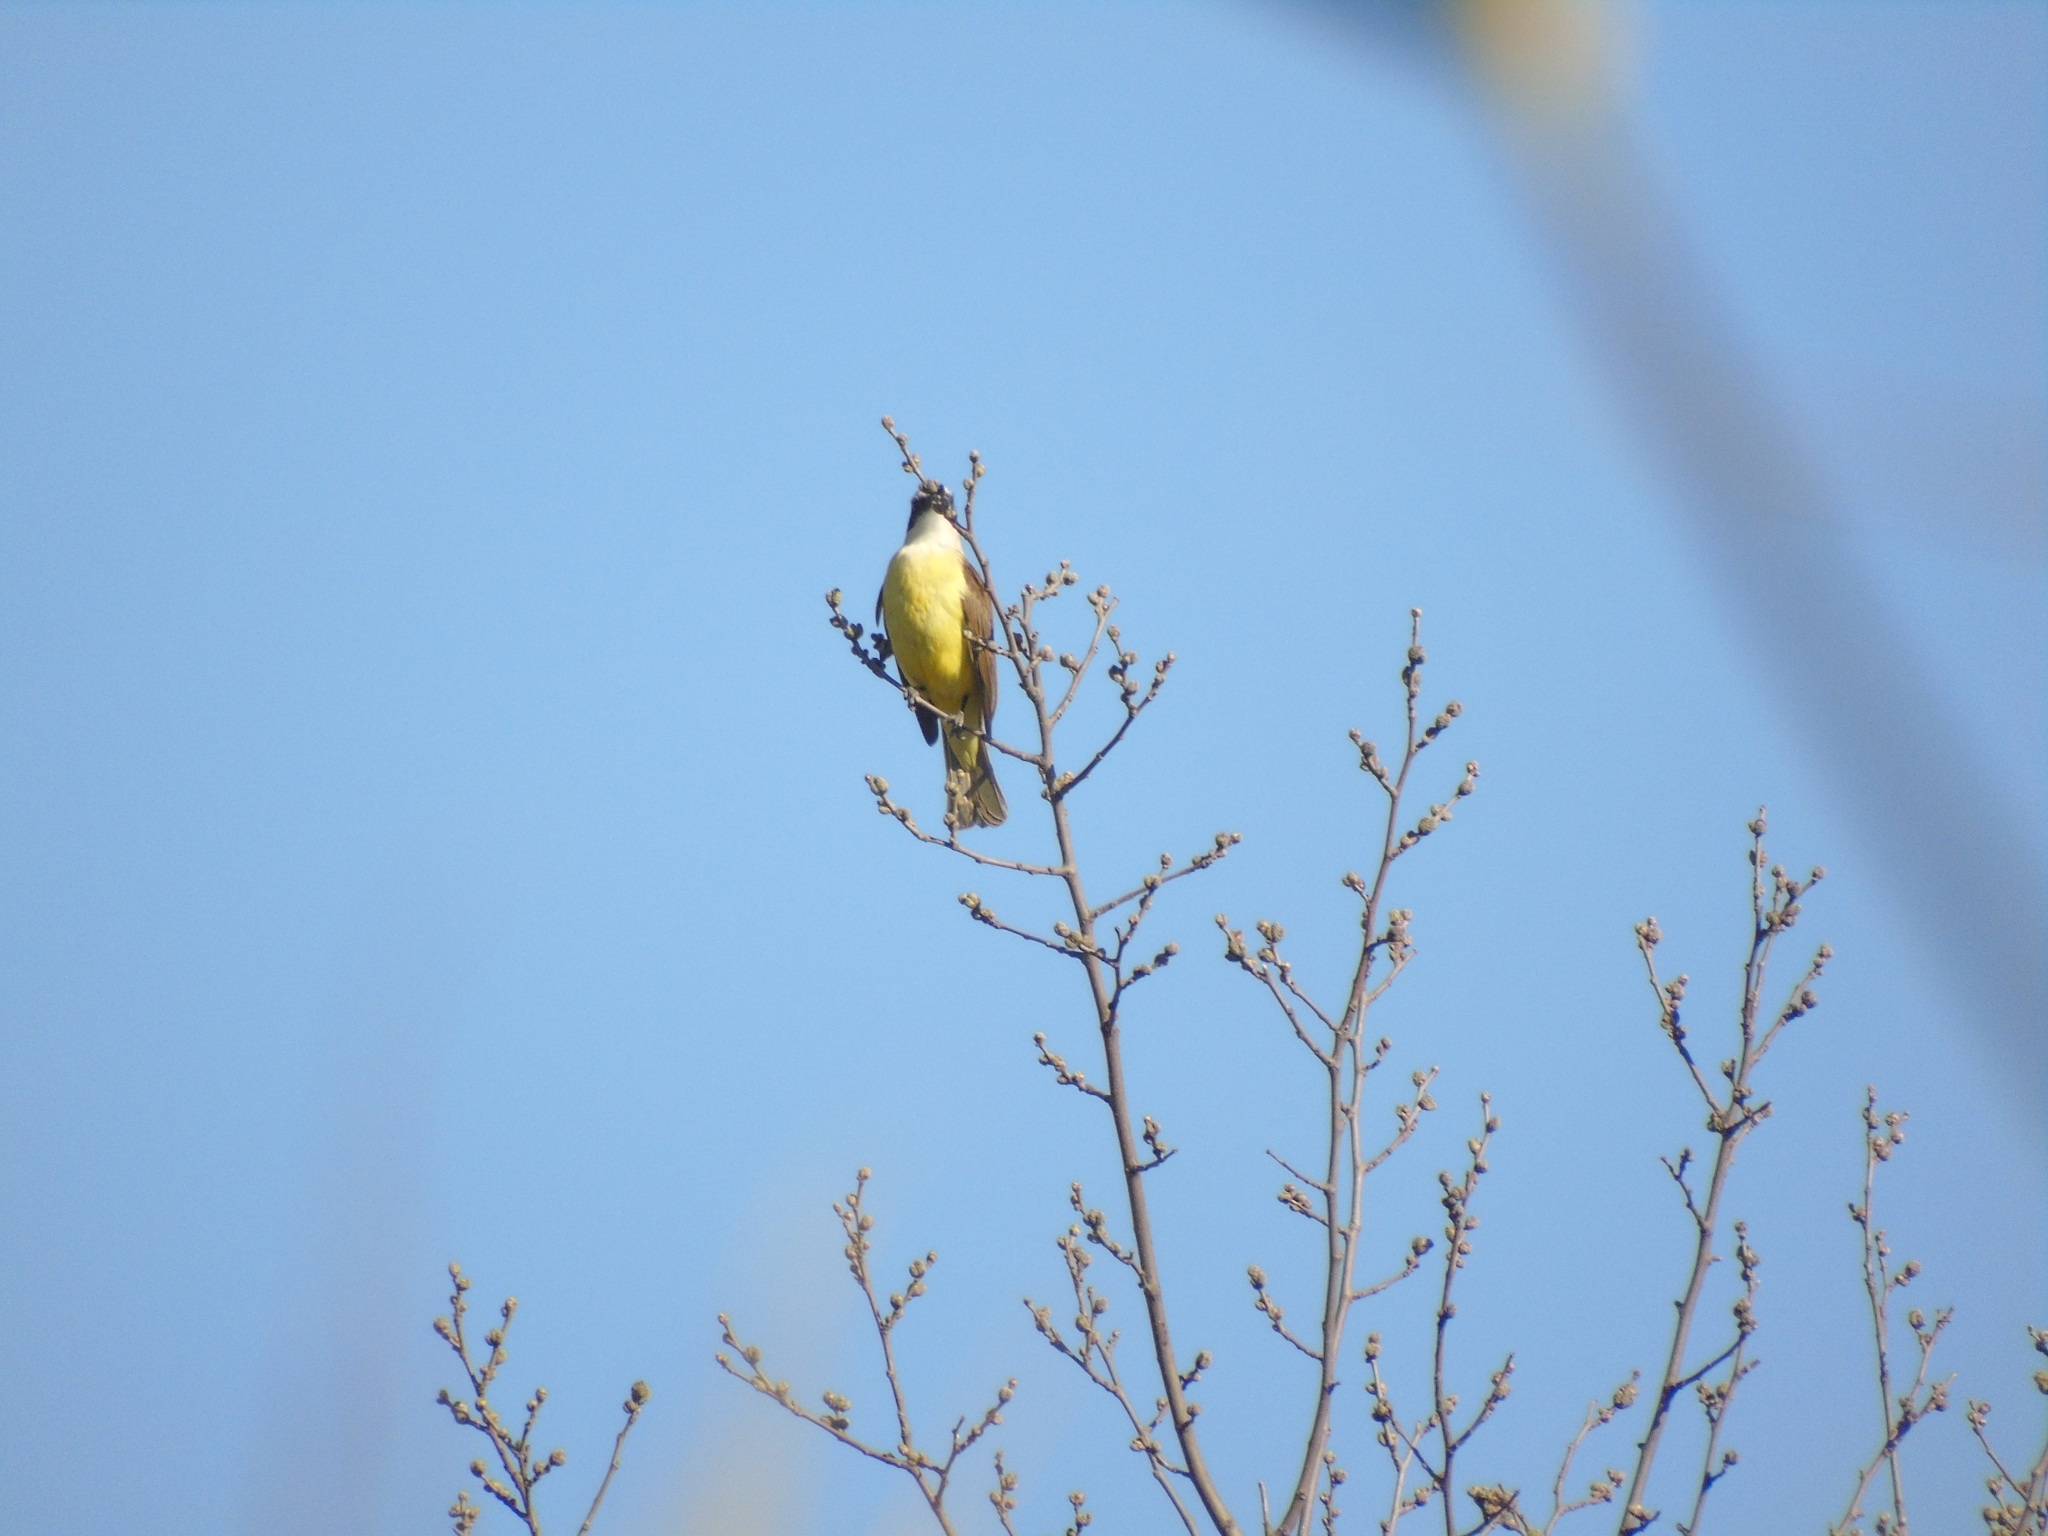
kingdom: Animalia
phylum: Chordata
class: Aves
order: Passeriformes
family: Tyrannidae
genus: Pitangus
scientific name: Pitangus sulphuratus
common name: Great kiskadee
